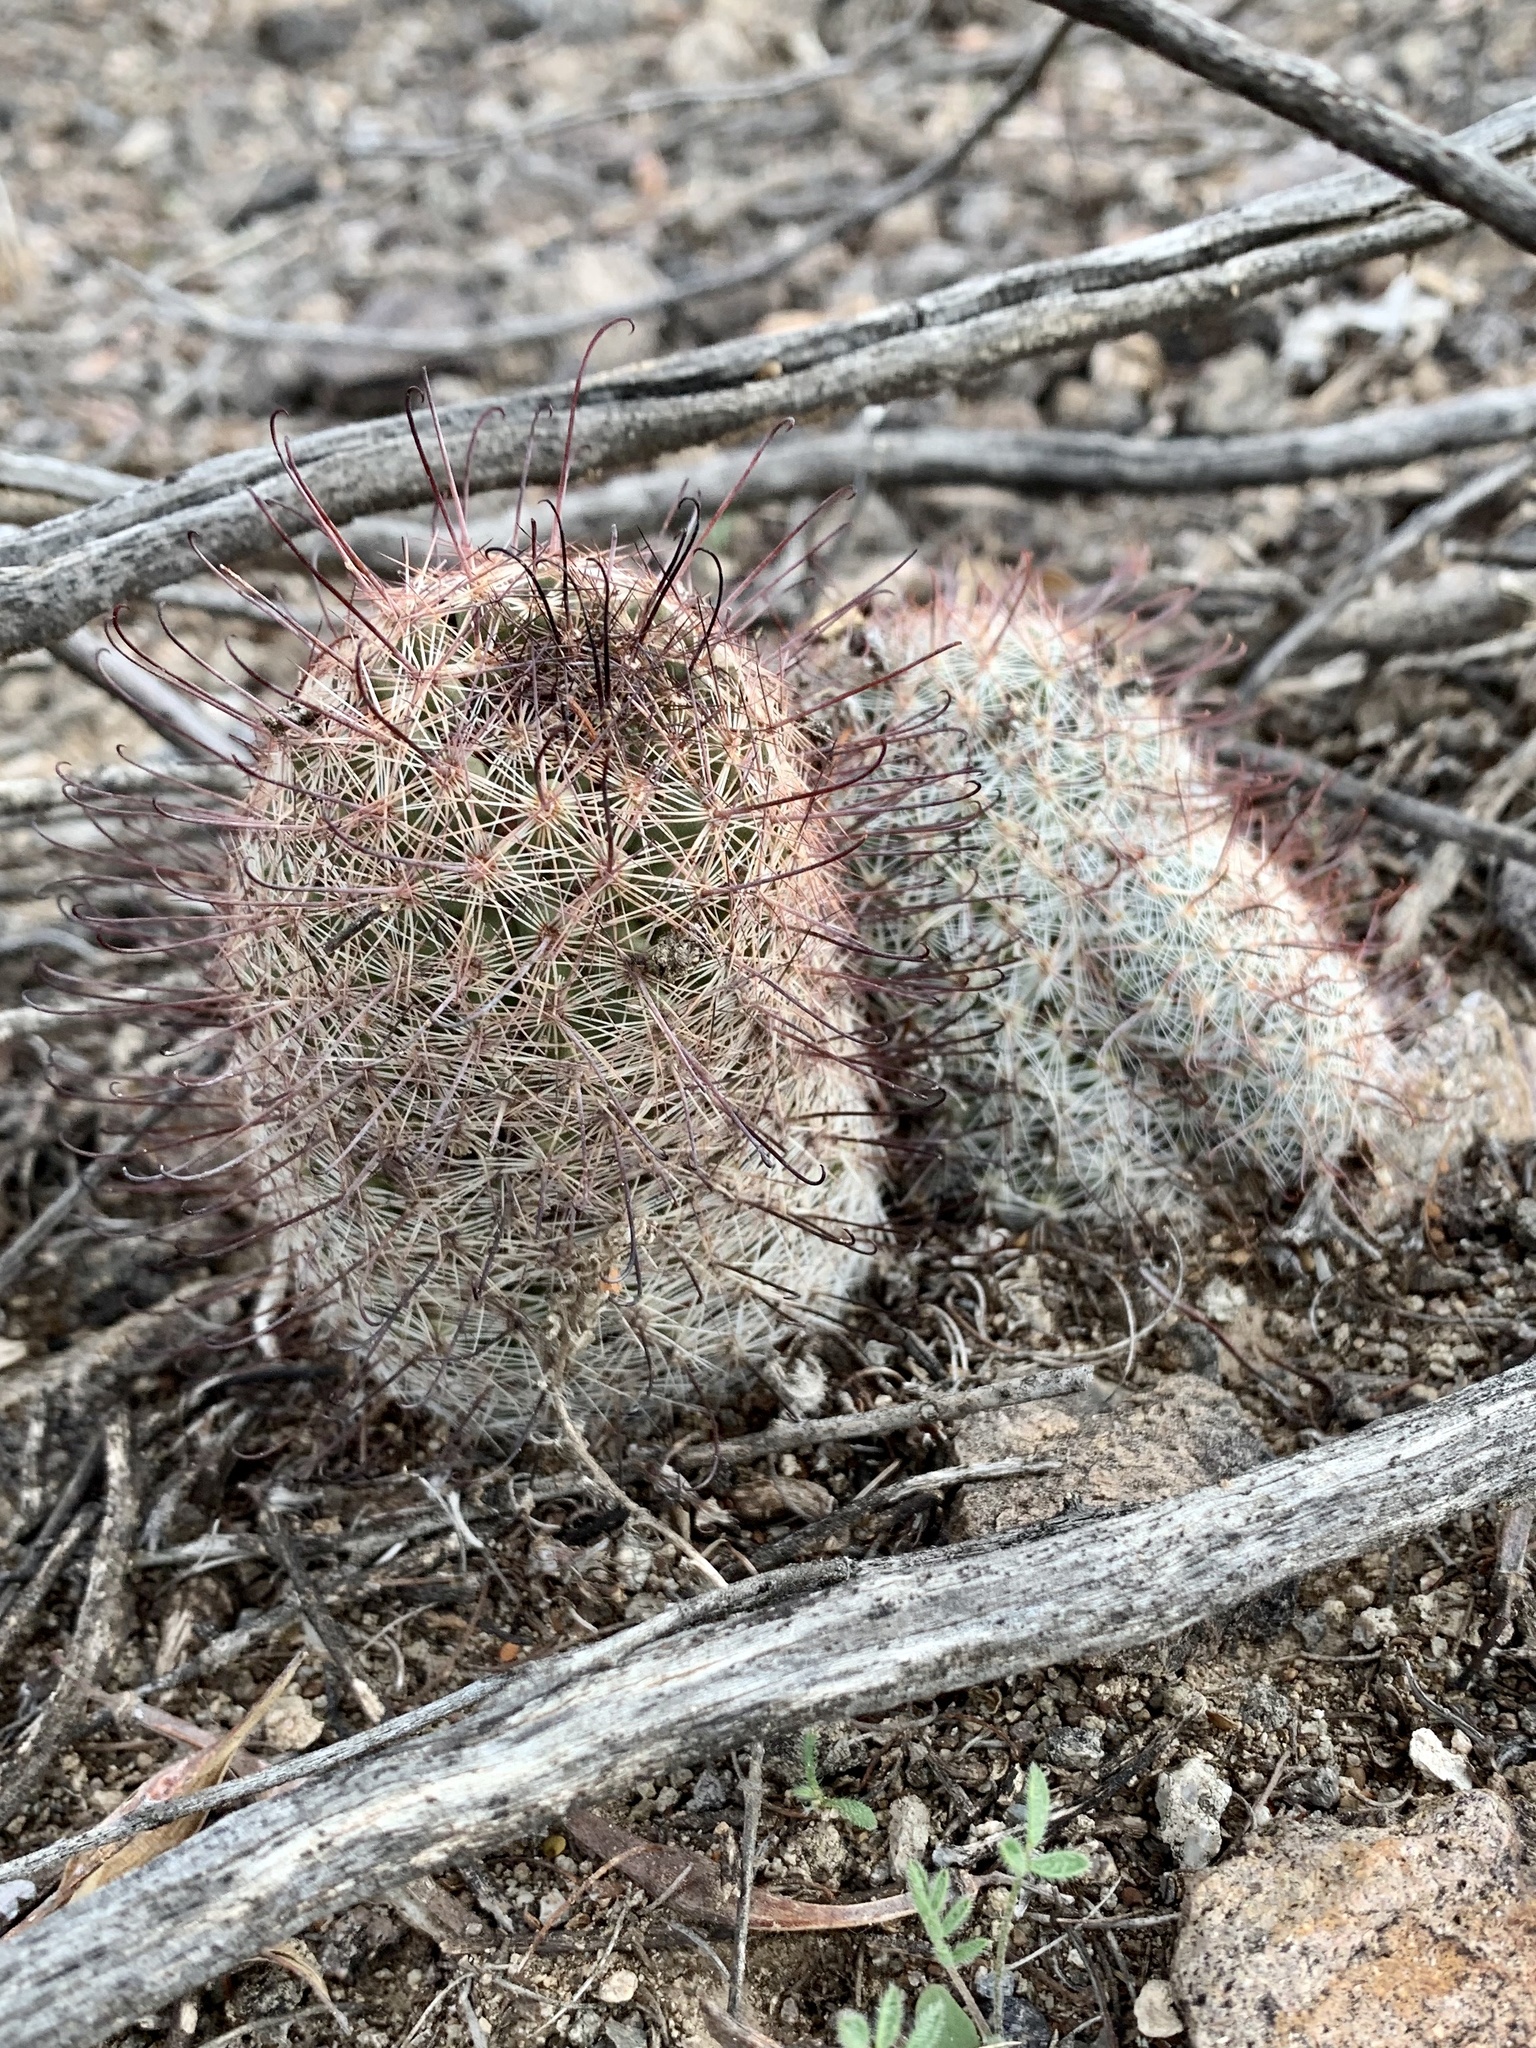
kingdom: Plantae
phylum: Tracheophyta
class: Magnoliopsida
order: Caryophyllales
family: Cactaceae
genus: Cochemiea
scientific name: Cochemiea grahamii
